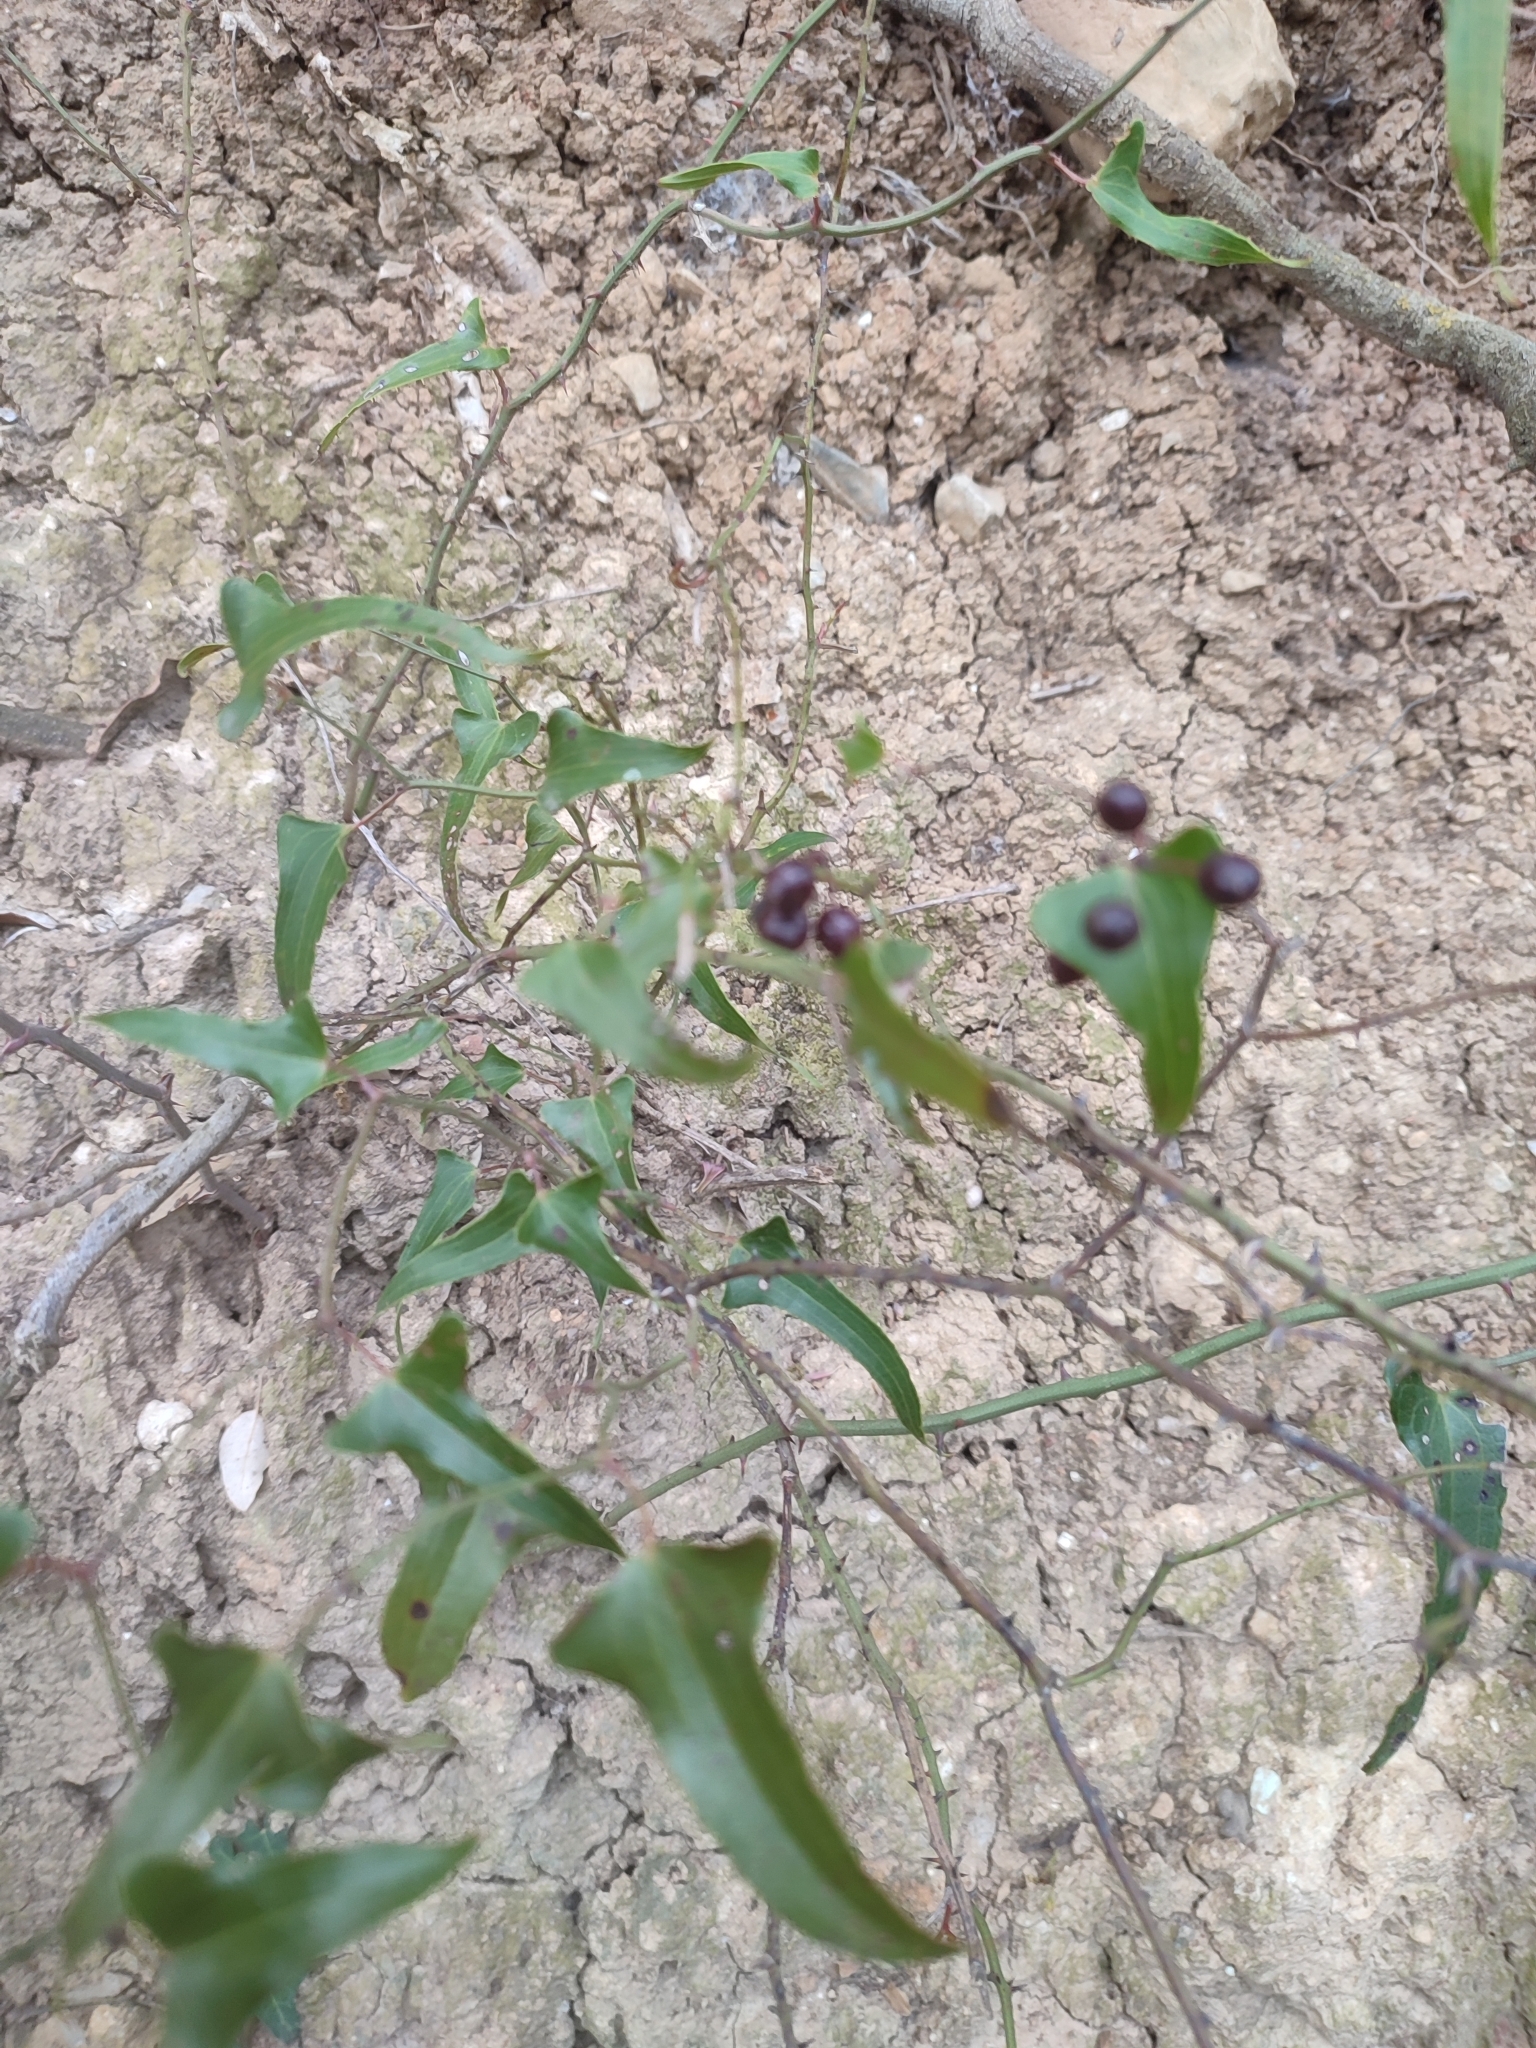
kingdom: Plantae
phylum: Tracheophyta
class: Liliopsida
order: Liliales
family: Smilacaceae
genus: Smilax
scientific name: Smilax aspera
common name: Common smilax
